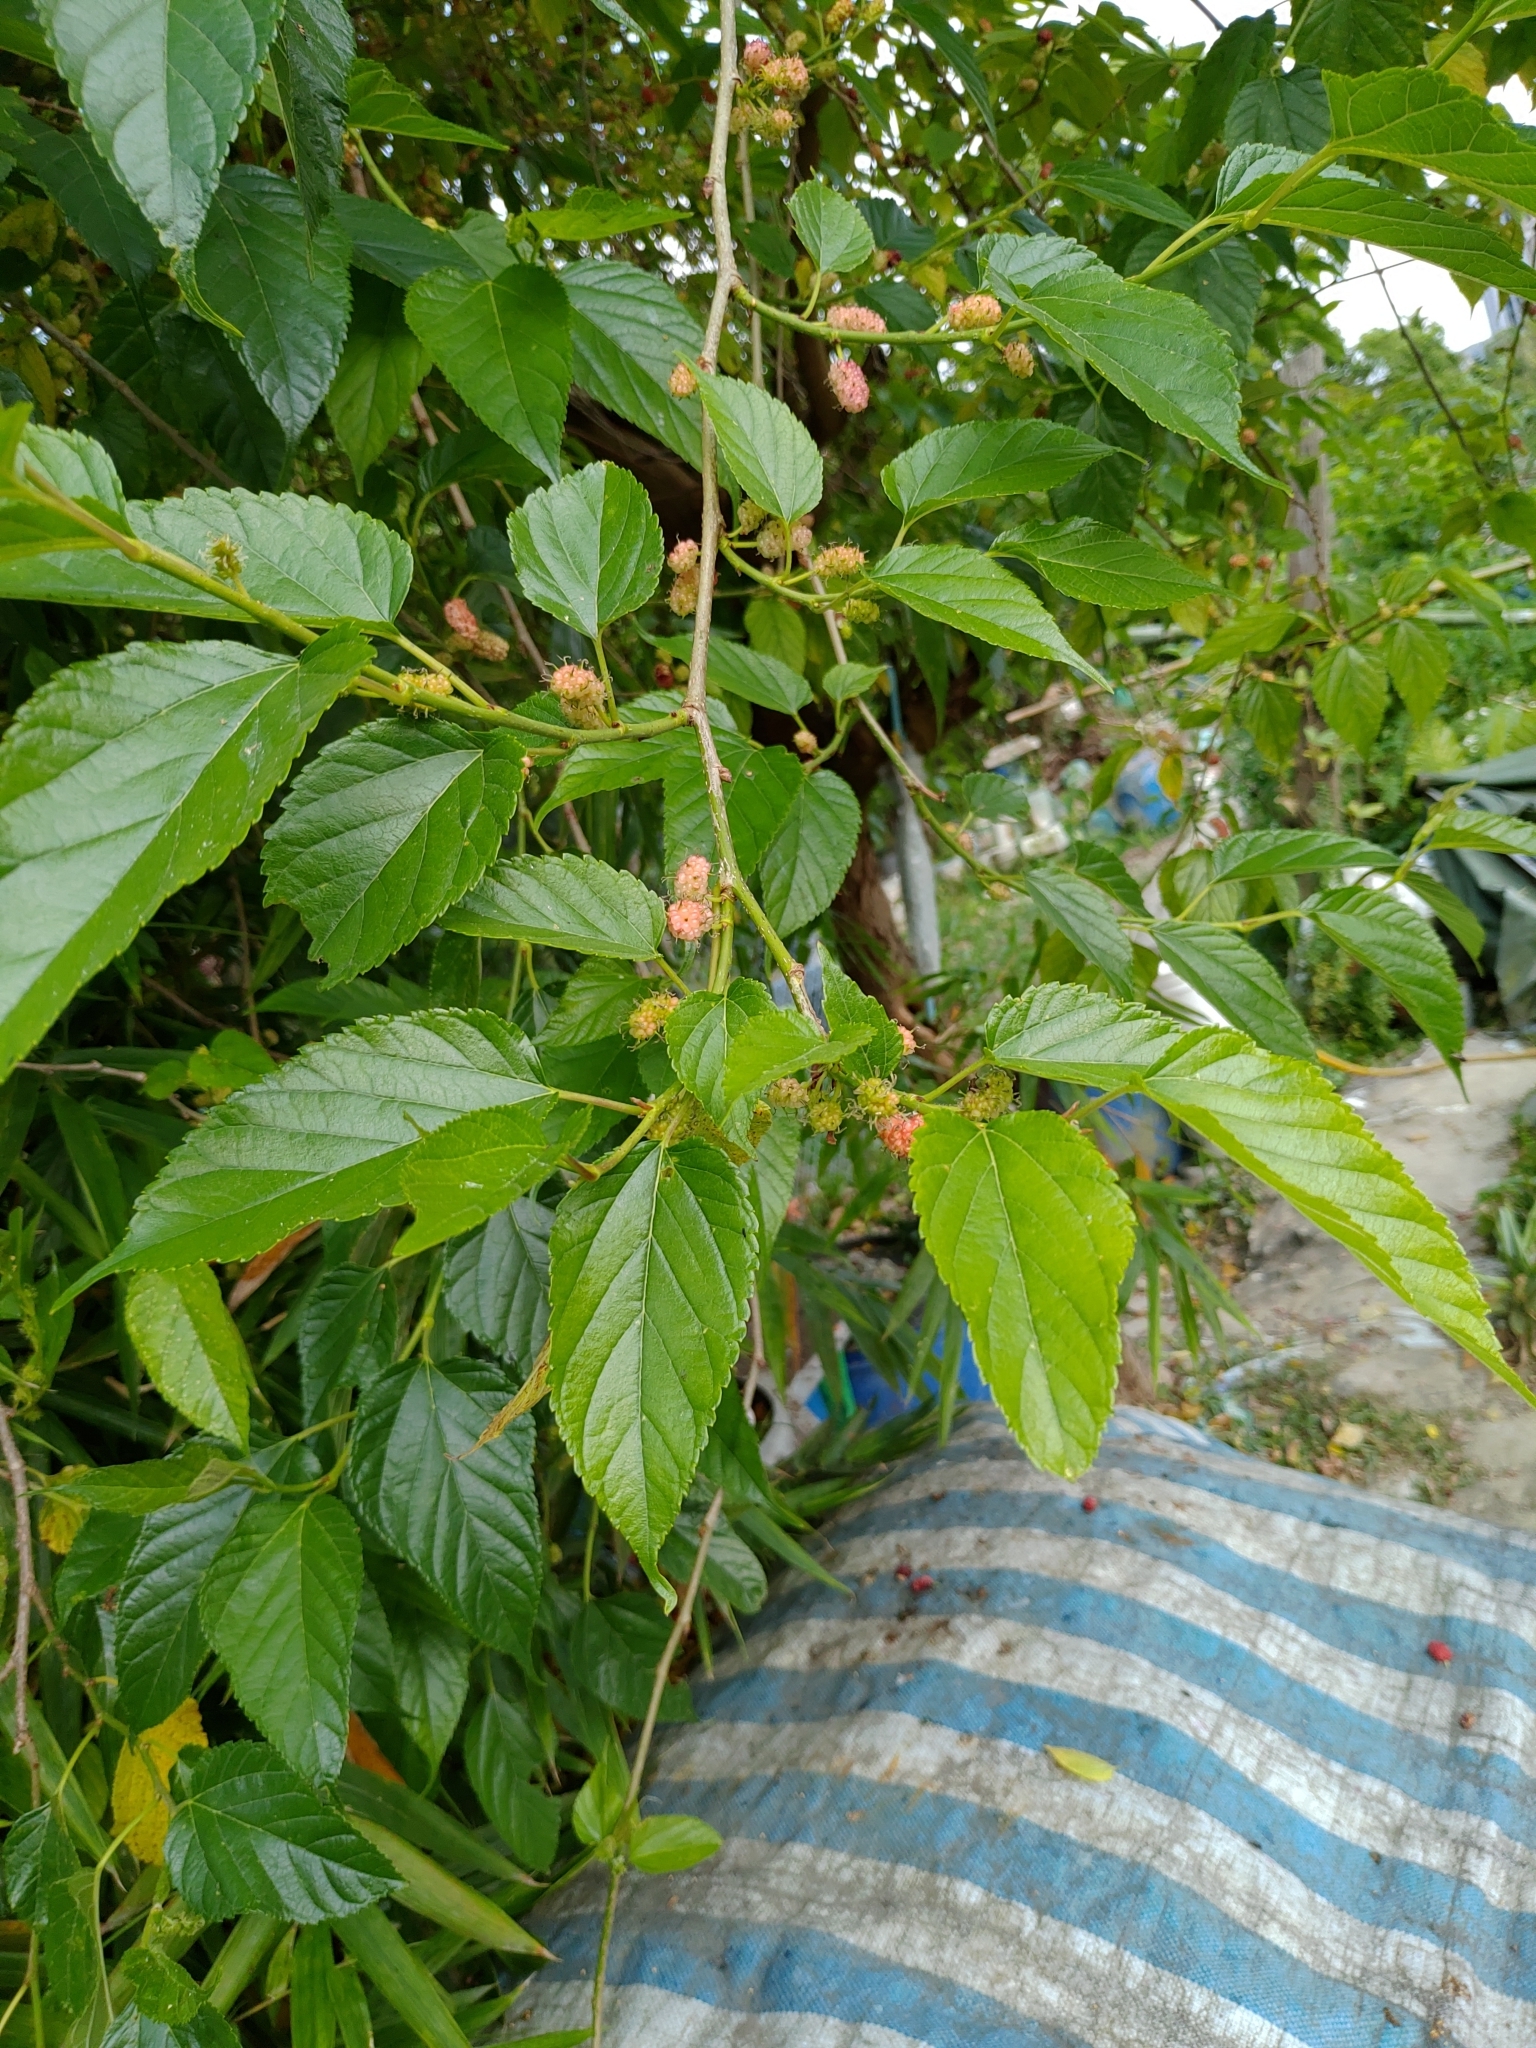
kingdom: Plantae
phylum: Tracheophyta
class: Magnoliopsida
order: Rosales
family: Moraceae
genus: Morus
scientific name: Morus indica
